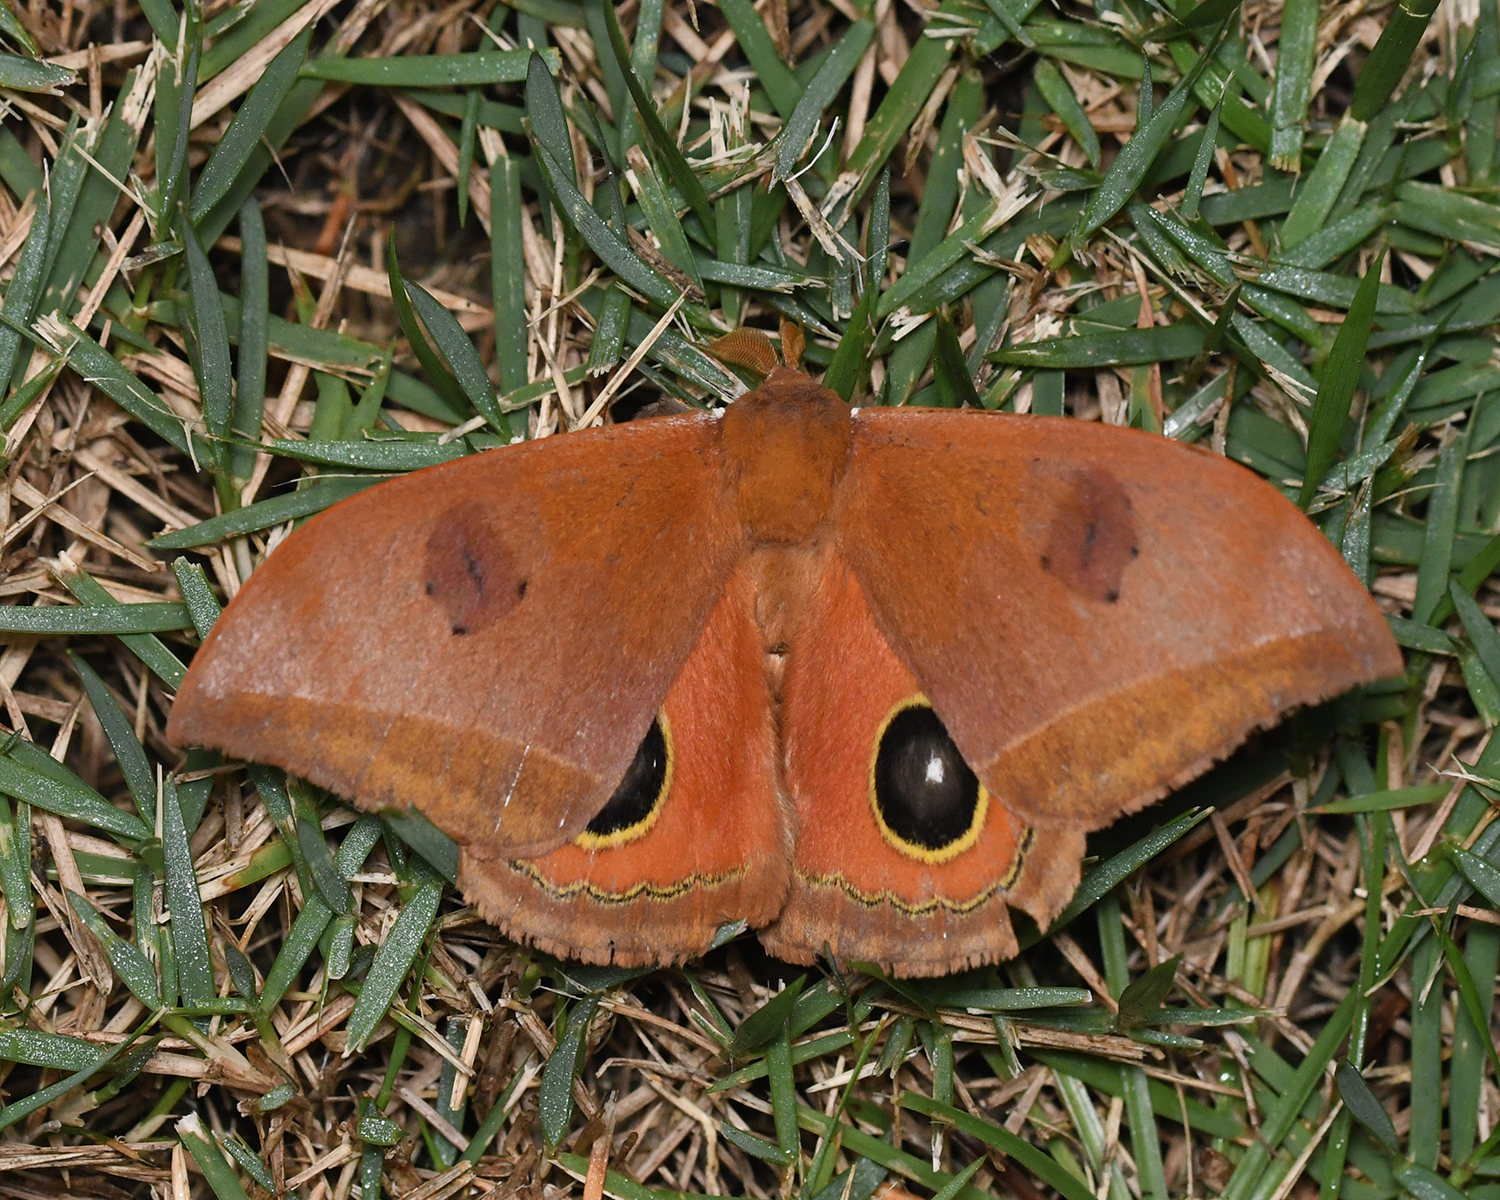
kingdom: Animalia
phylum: Arthropoda
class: Insecta
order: Lepidoptera
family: Saturniidae
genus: Automeris
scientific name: Automeris midea
